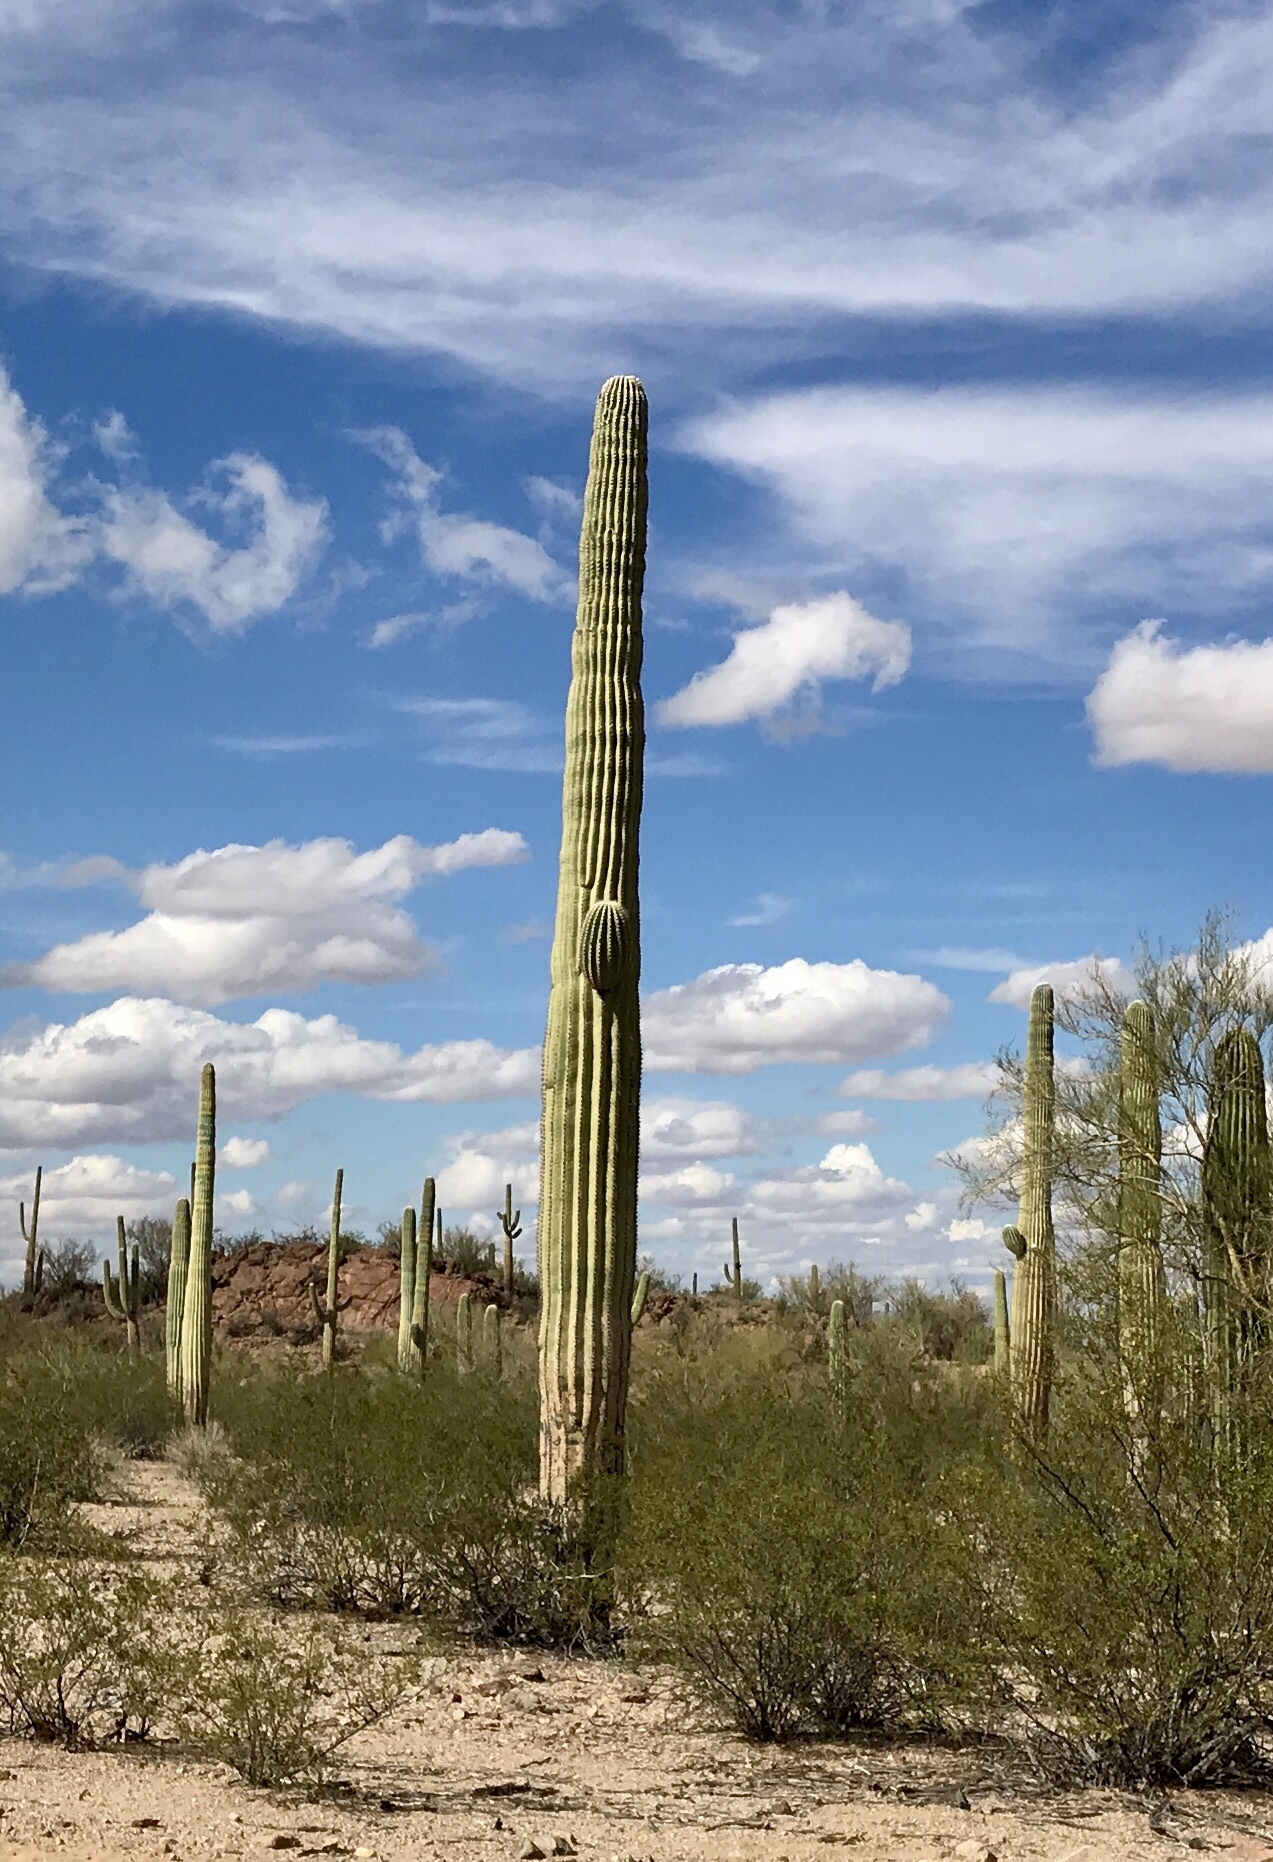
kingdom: Plantae
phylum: Tracheophyta
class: Magnoliopsida
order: Caryophyllales
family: Cactaceae
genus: Carnegiea
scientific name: Carnegiea gigantea
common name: Saguaro
